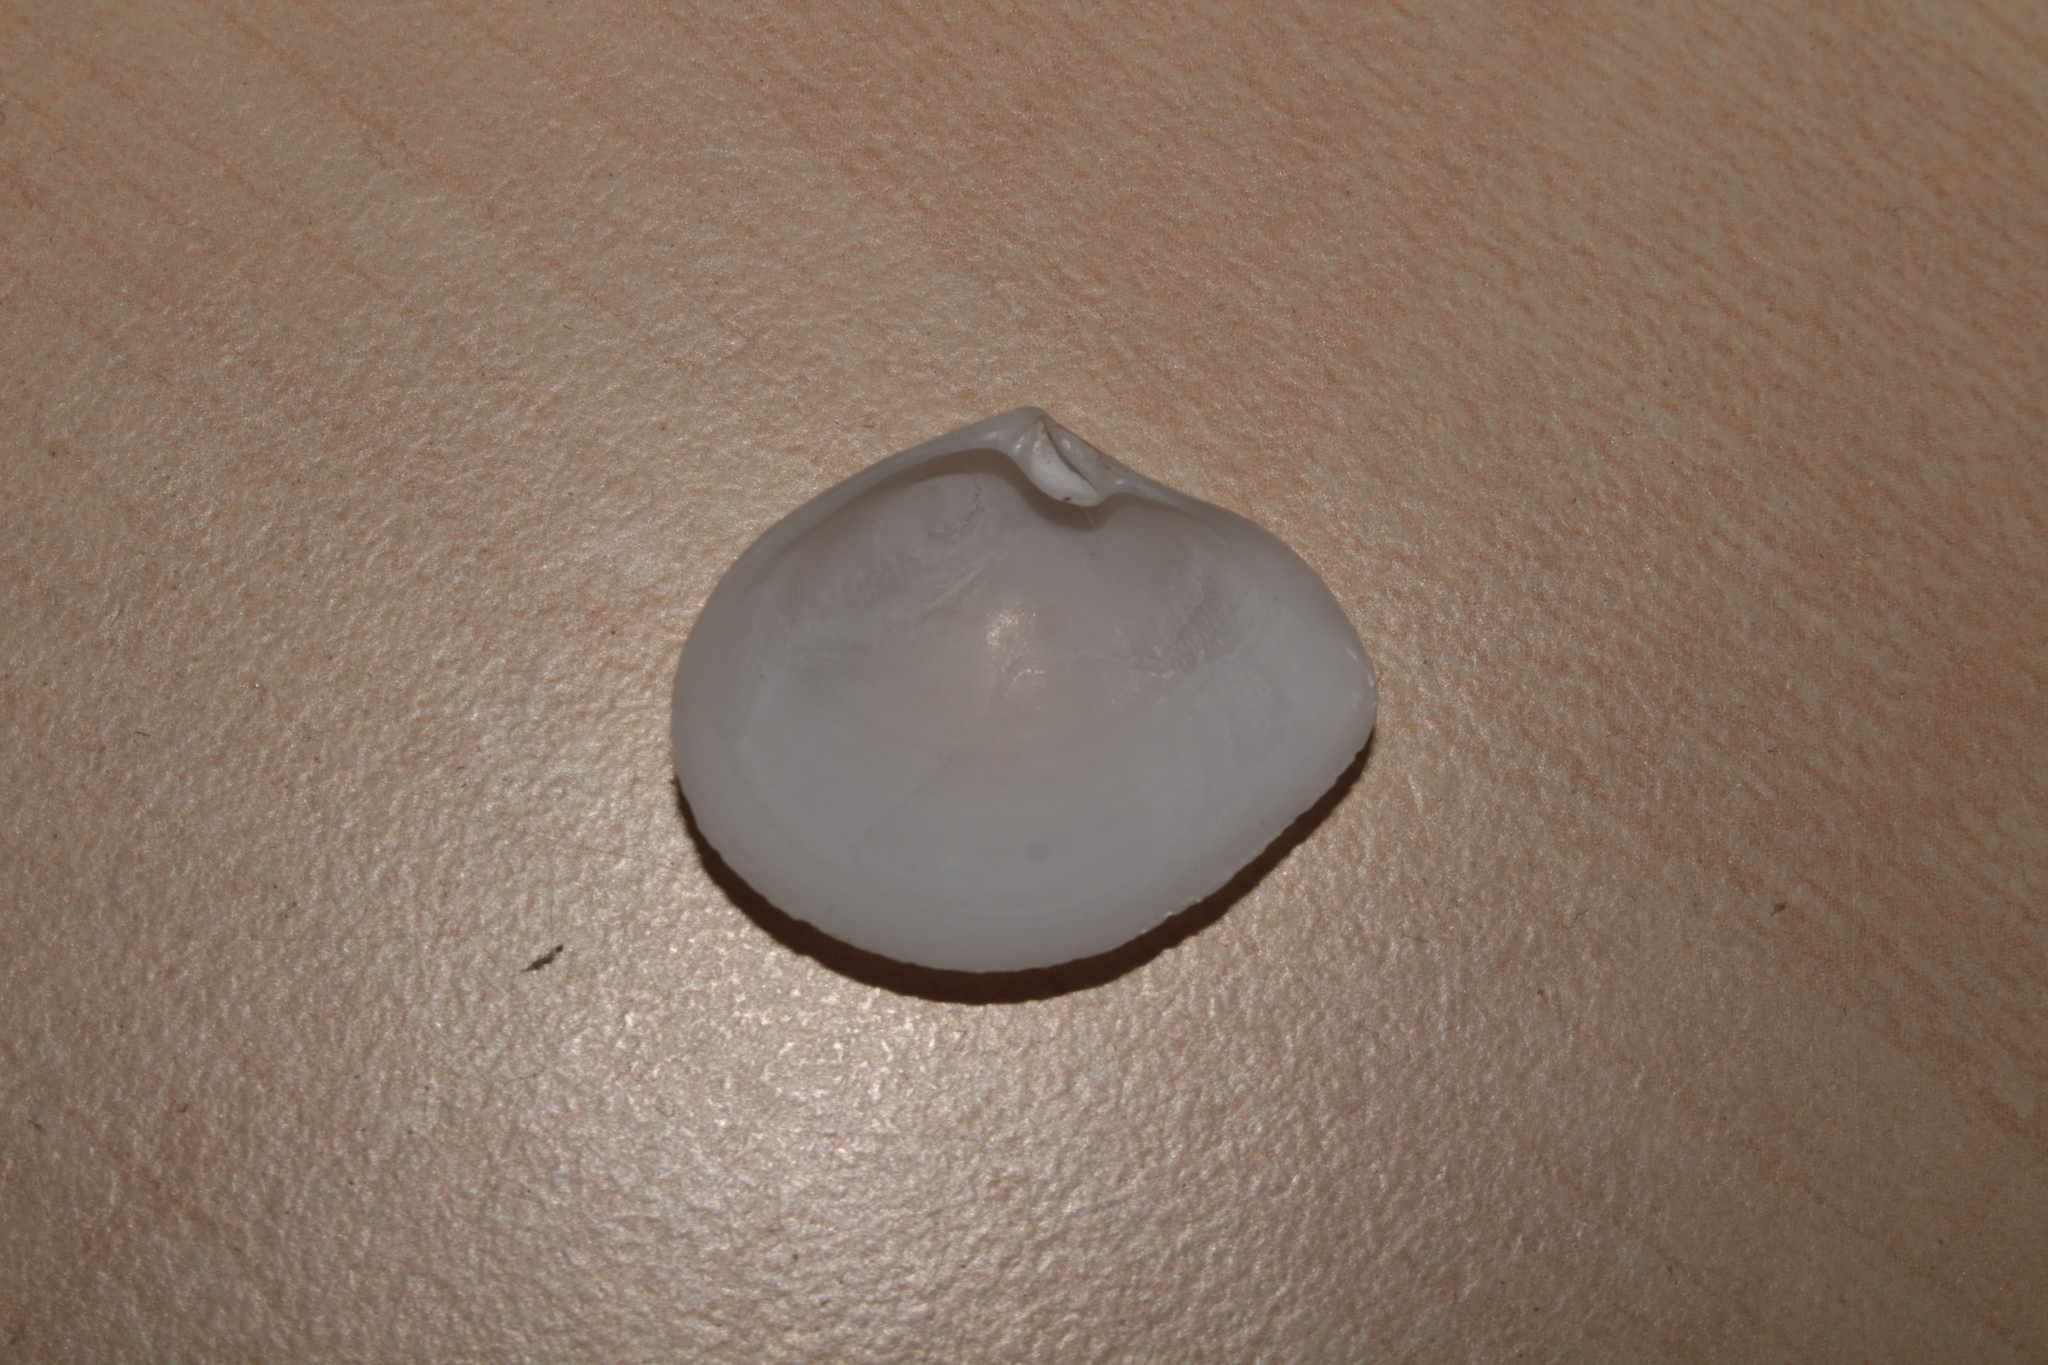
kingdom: Animalia
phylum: Mollusca
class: Bivalvia
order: Cardiida
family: Semelidae
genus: Abra
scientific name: Abra alba
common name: White abra
